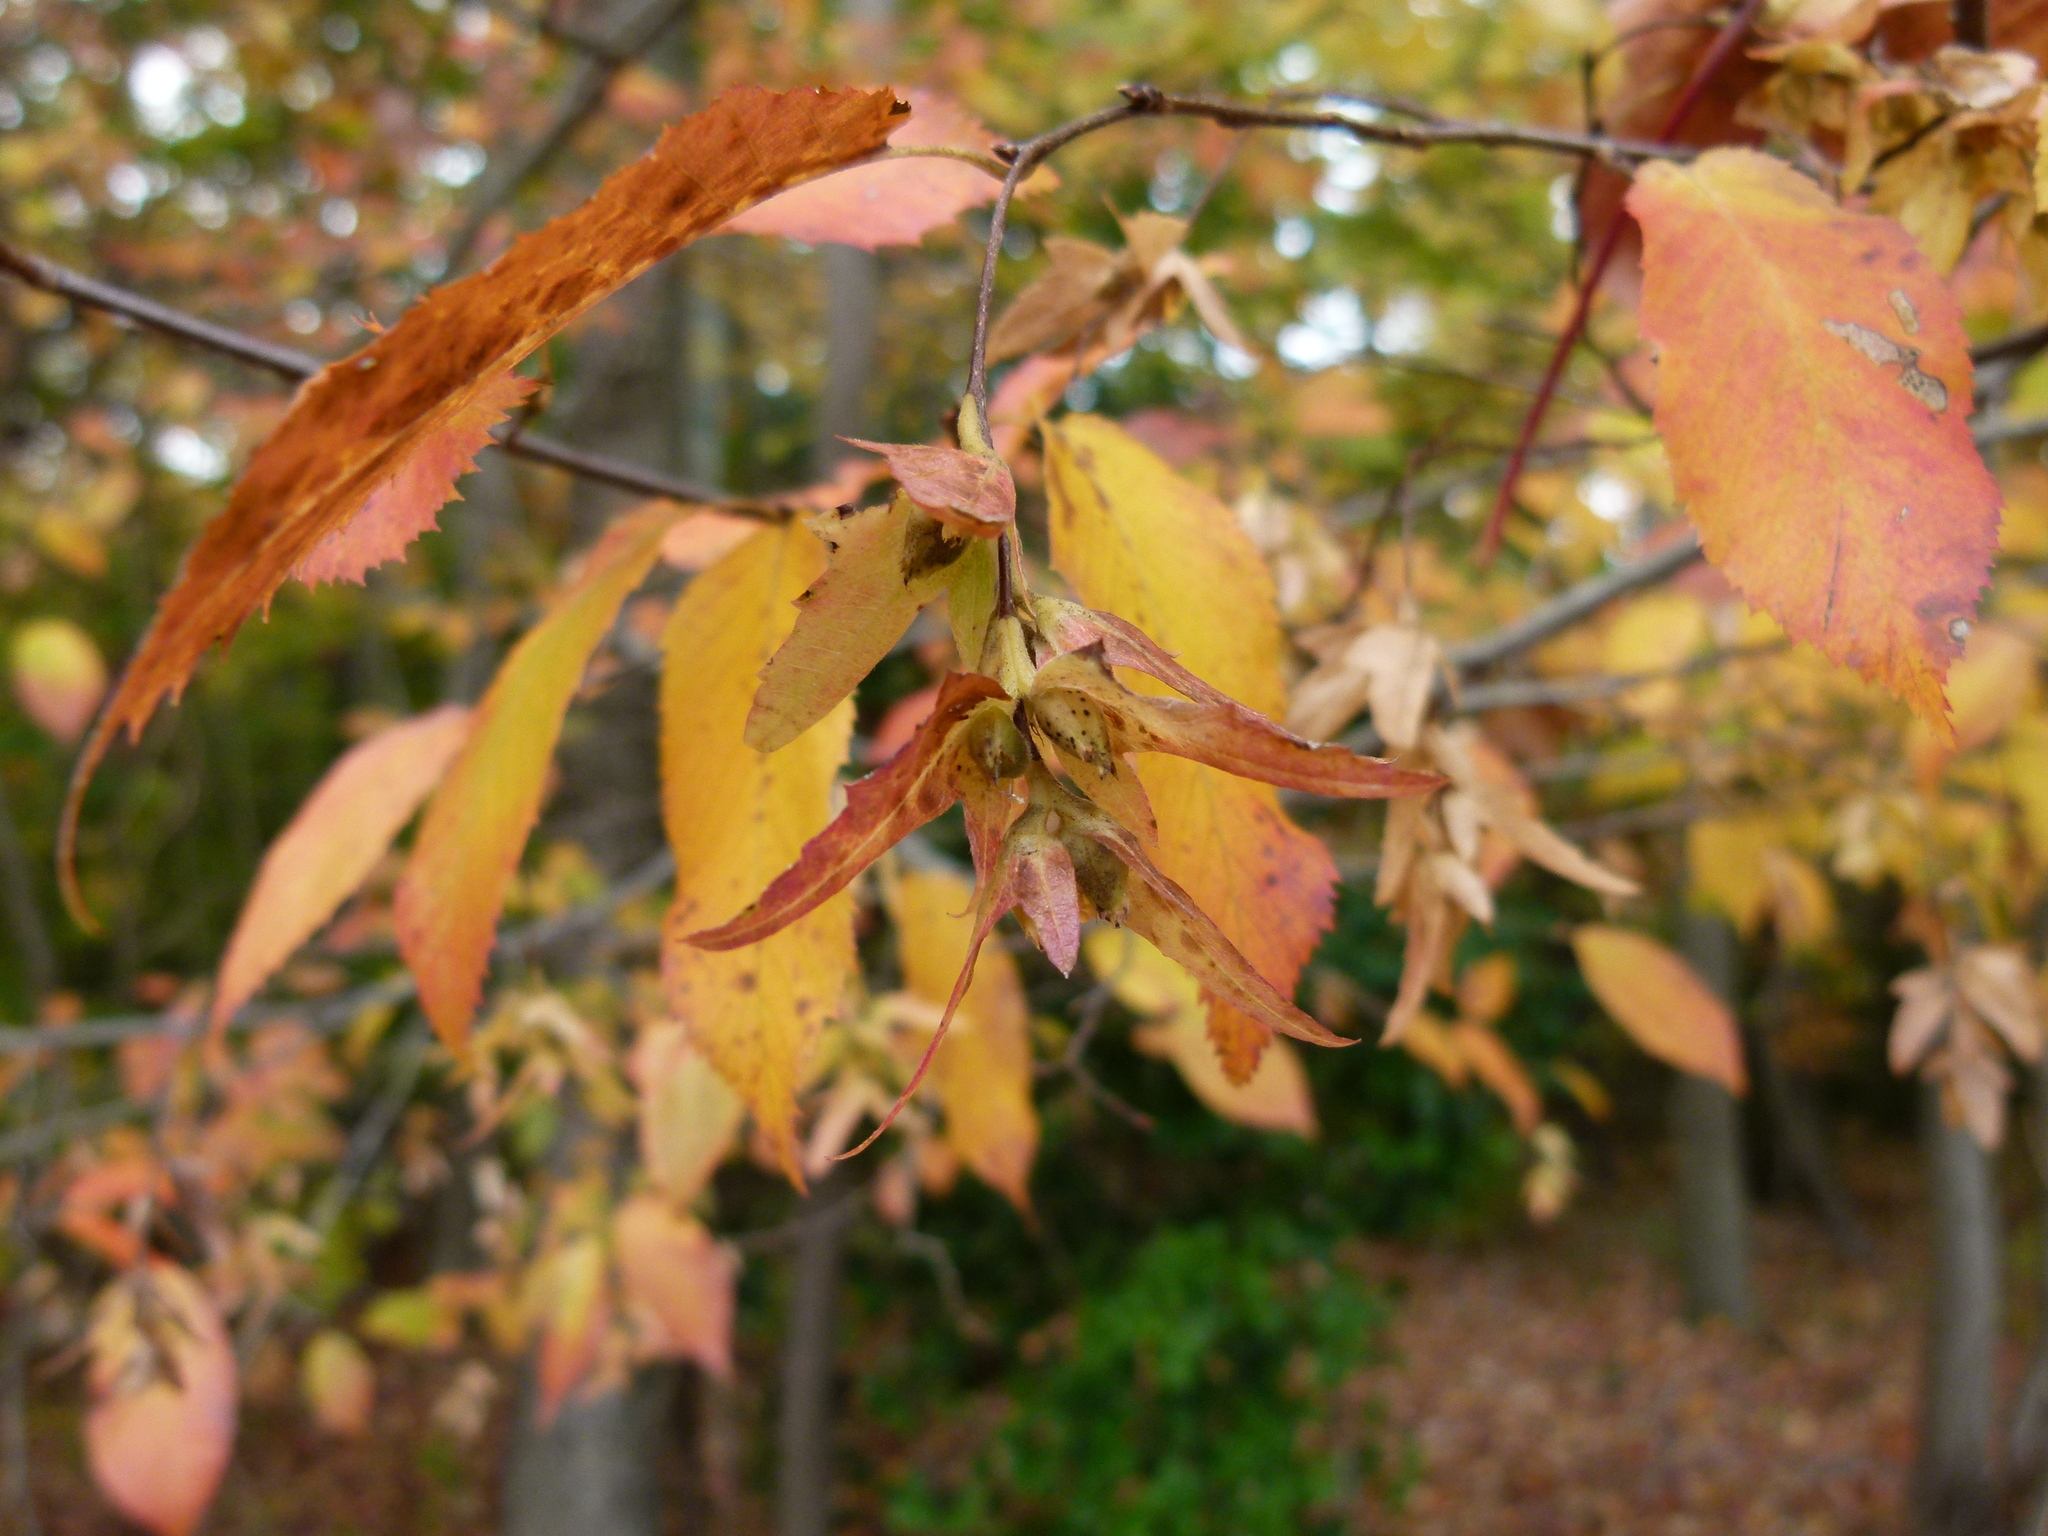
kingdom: Plantae
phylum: Tracheophyta
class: Magnoliopsida
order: Fagales
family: Betulaceae
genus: Carpinus
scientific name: Carpinus caroliniana
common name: American hornbeam
